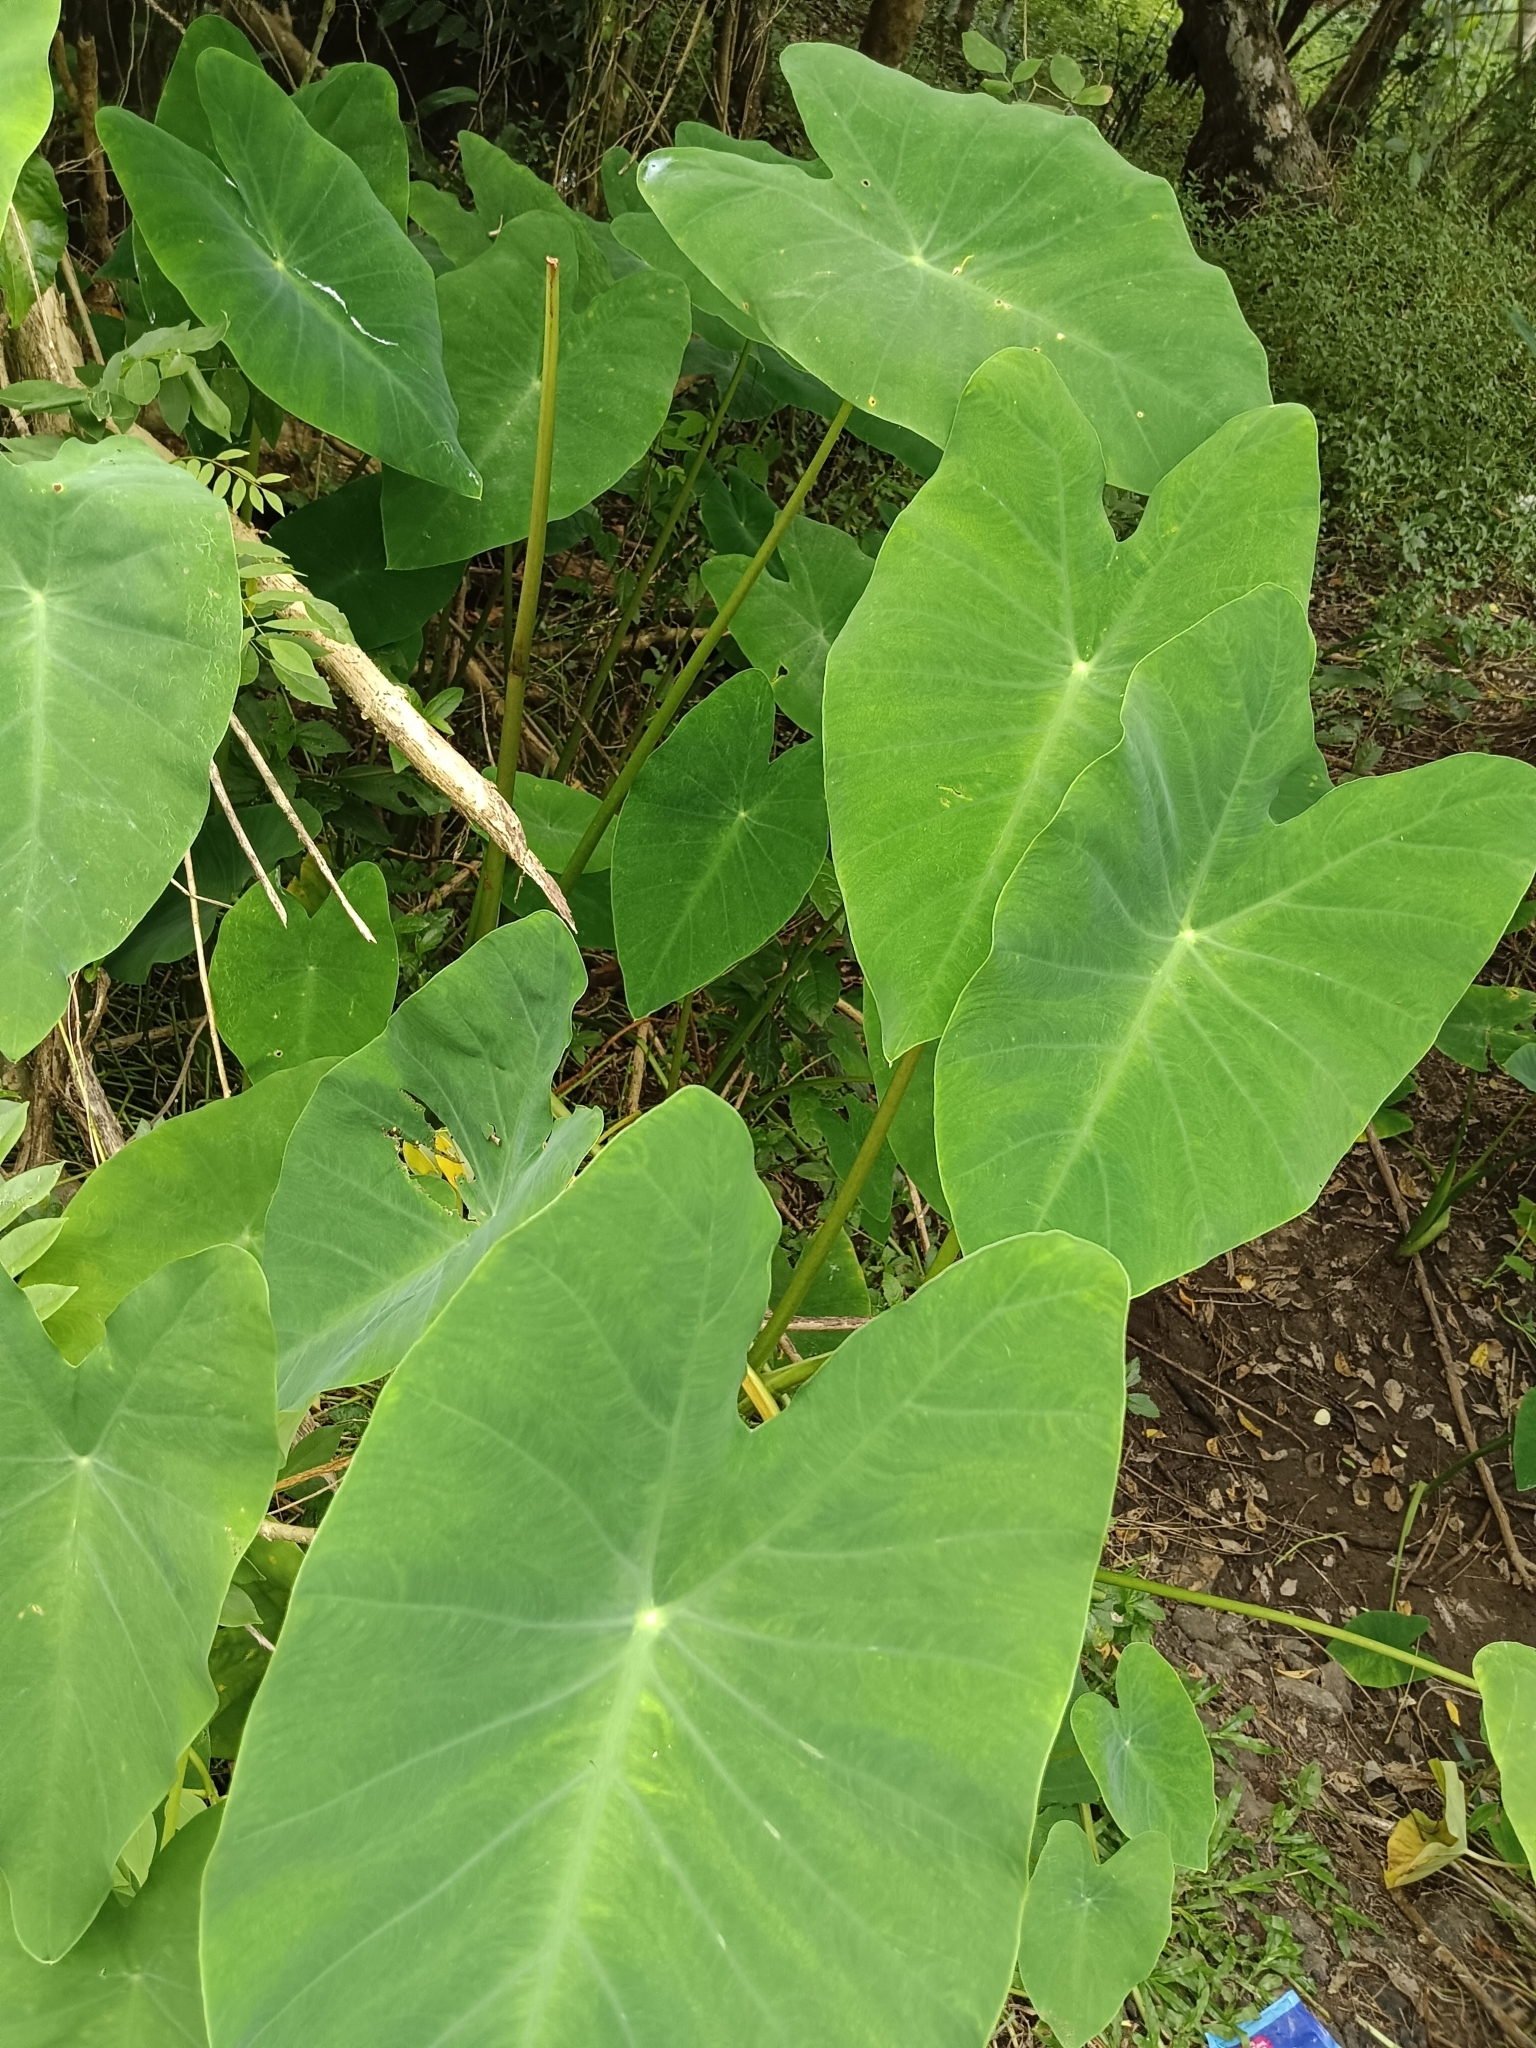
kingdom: Plantae
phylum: Tracheophyta
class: Liliopsida
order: Alismatales
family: Araceae
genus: Colocasia
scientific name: Colocasia esculenta
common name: Taro
